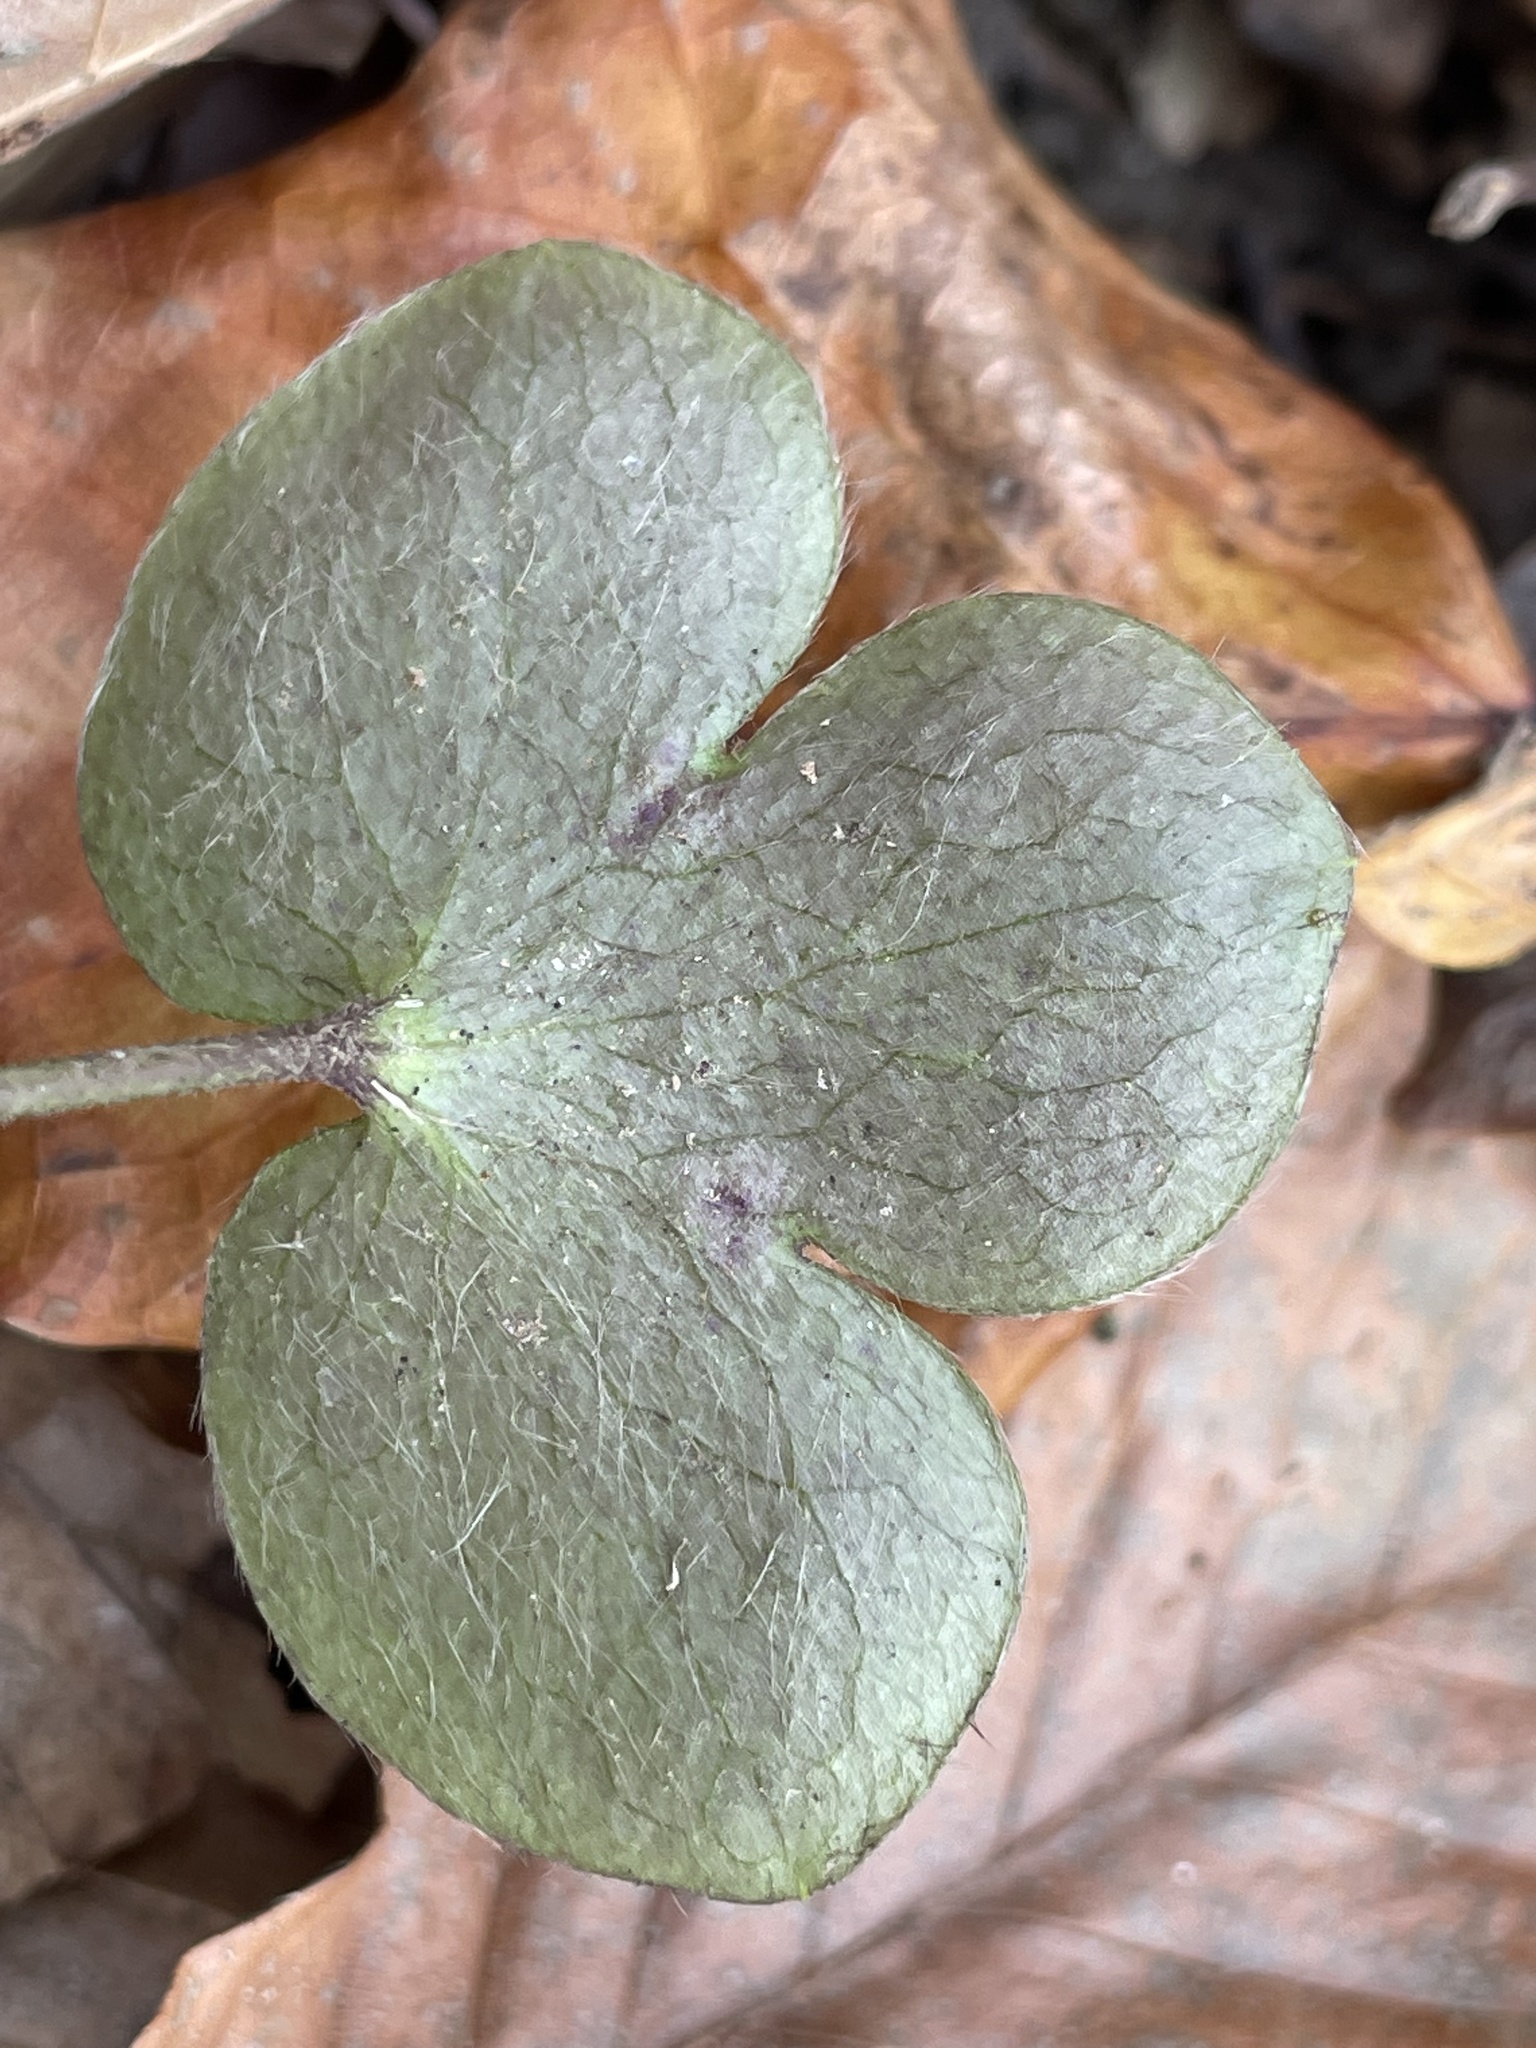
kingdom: Plantae
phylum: Tracheophyta
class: Magnoliopsida
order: Ranunculales
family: Ranunculaceae
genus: Hepatica
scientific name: Hepatica americana
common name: American hepatica
